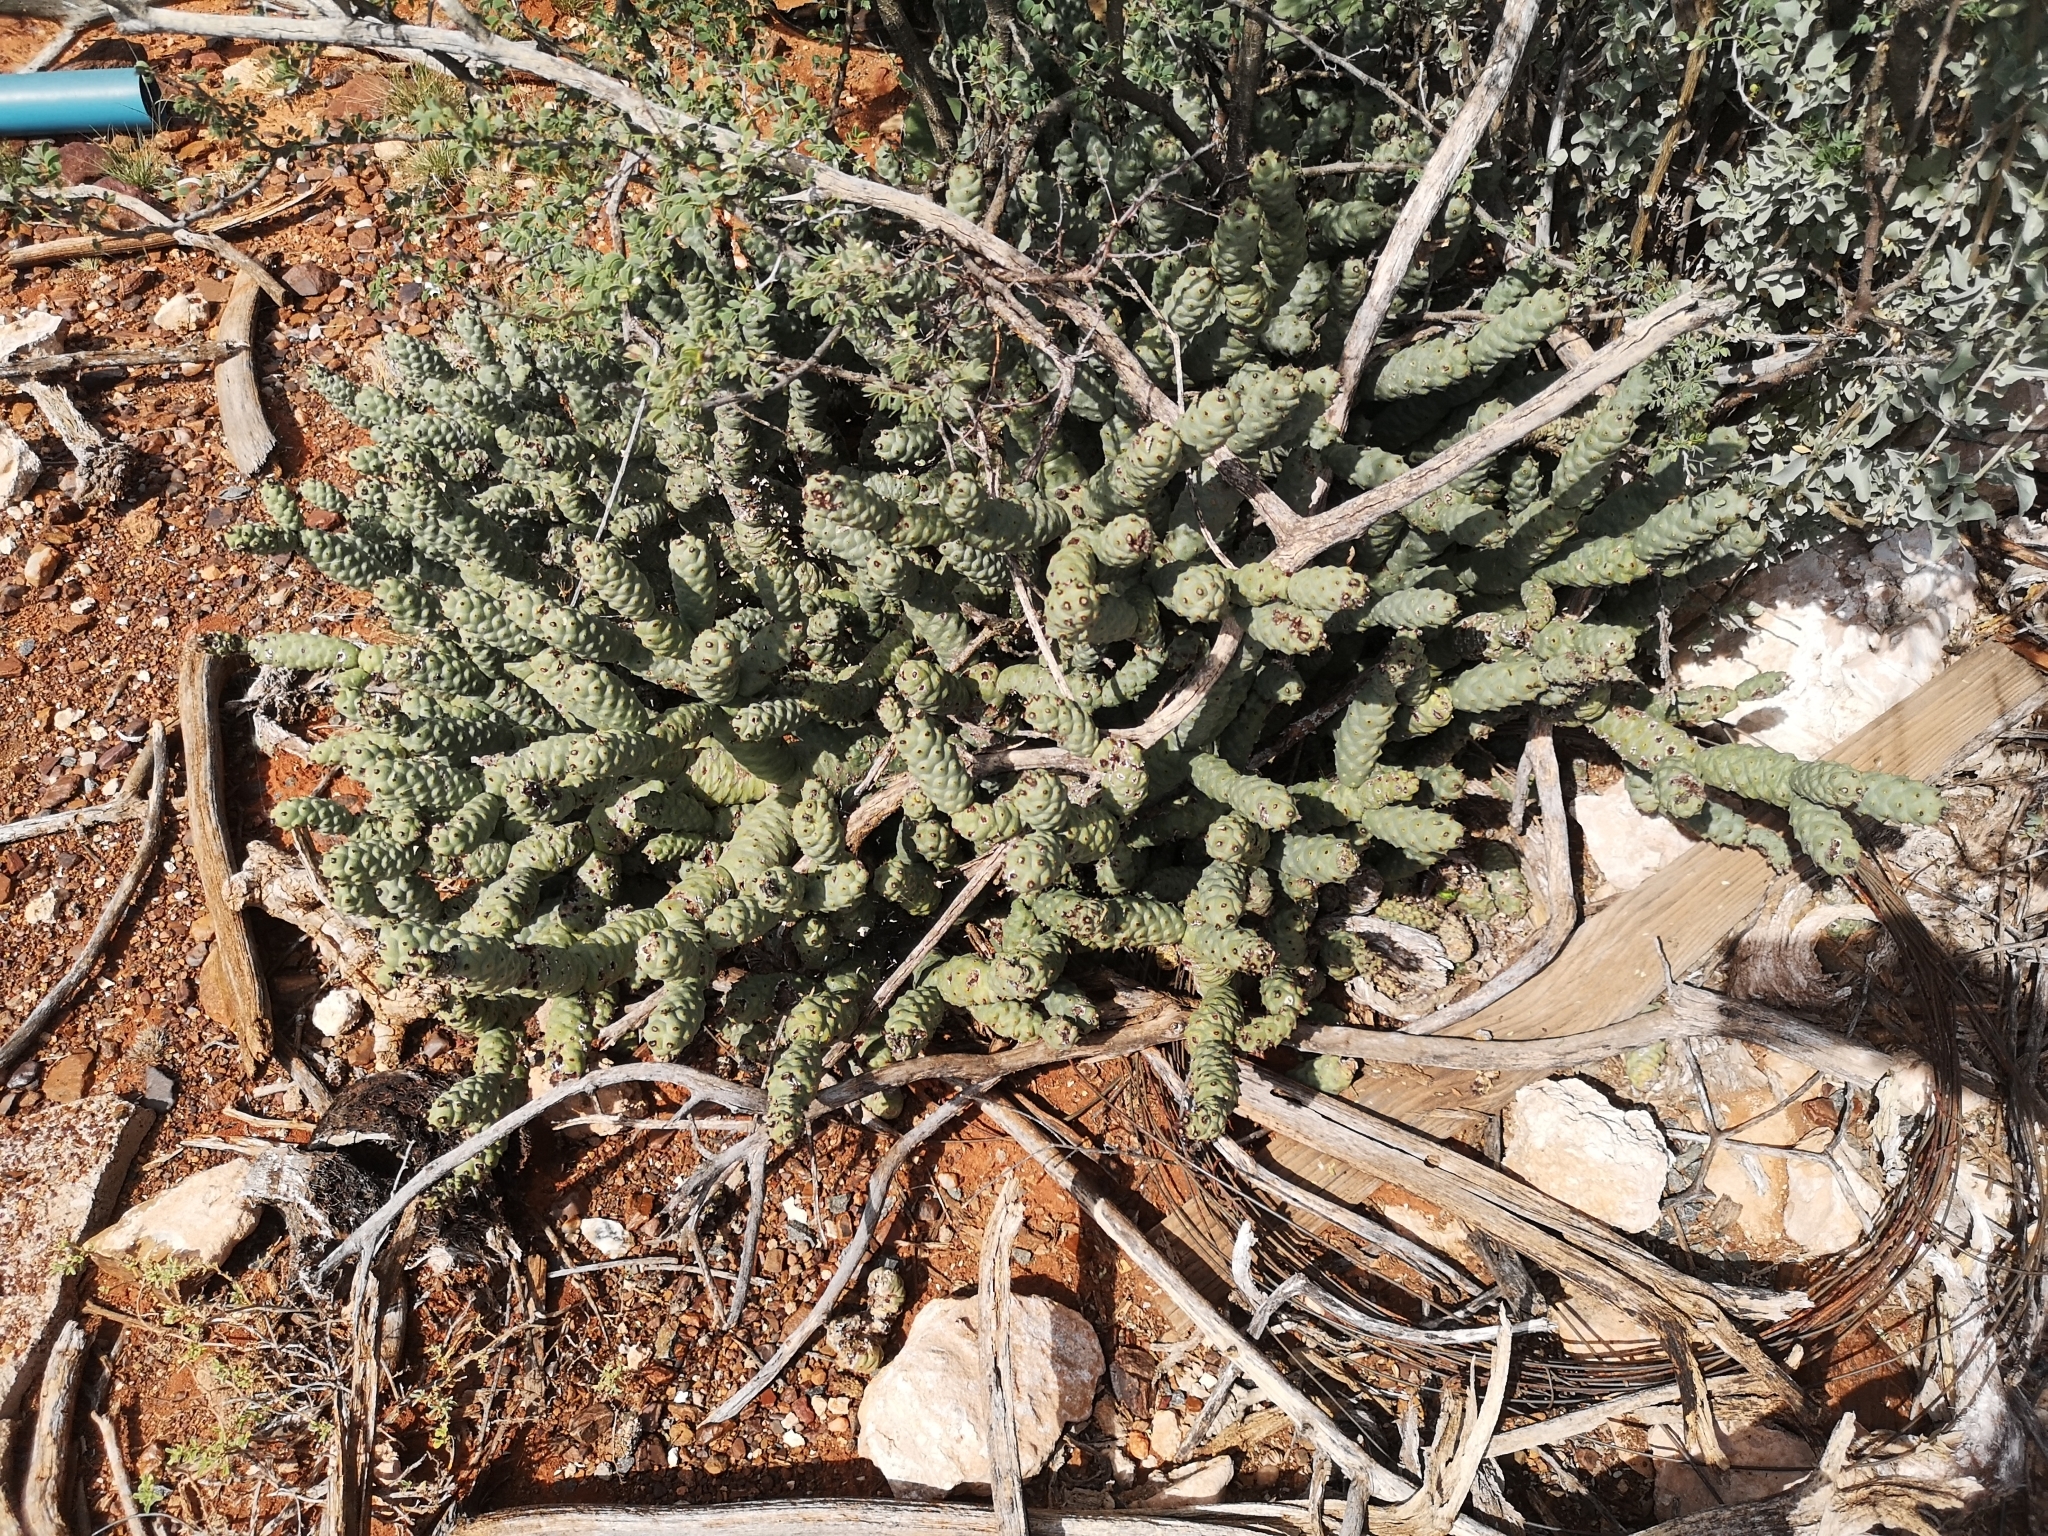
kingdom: Plantae
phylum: Tracheophyta
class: Magnoliopsida
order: Caryophyllales
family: Cactaceae
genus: Tephrocactus
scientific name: Tephrocactus articulatus
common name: Paper cactus
